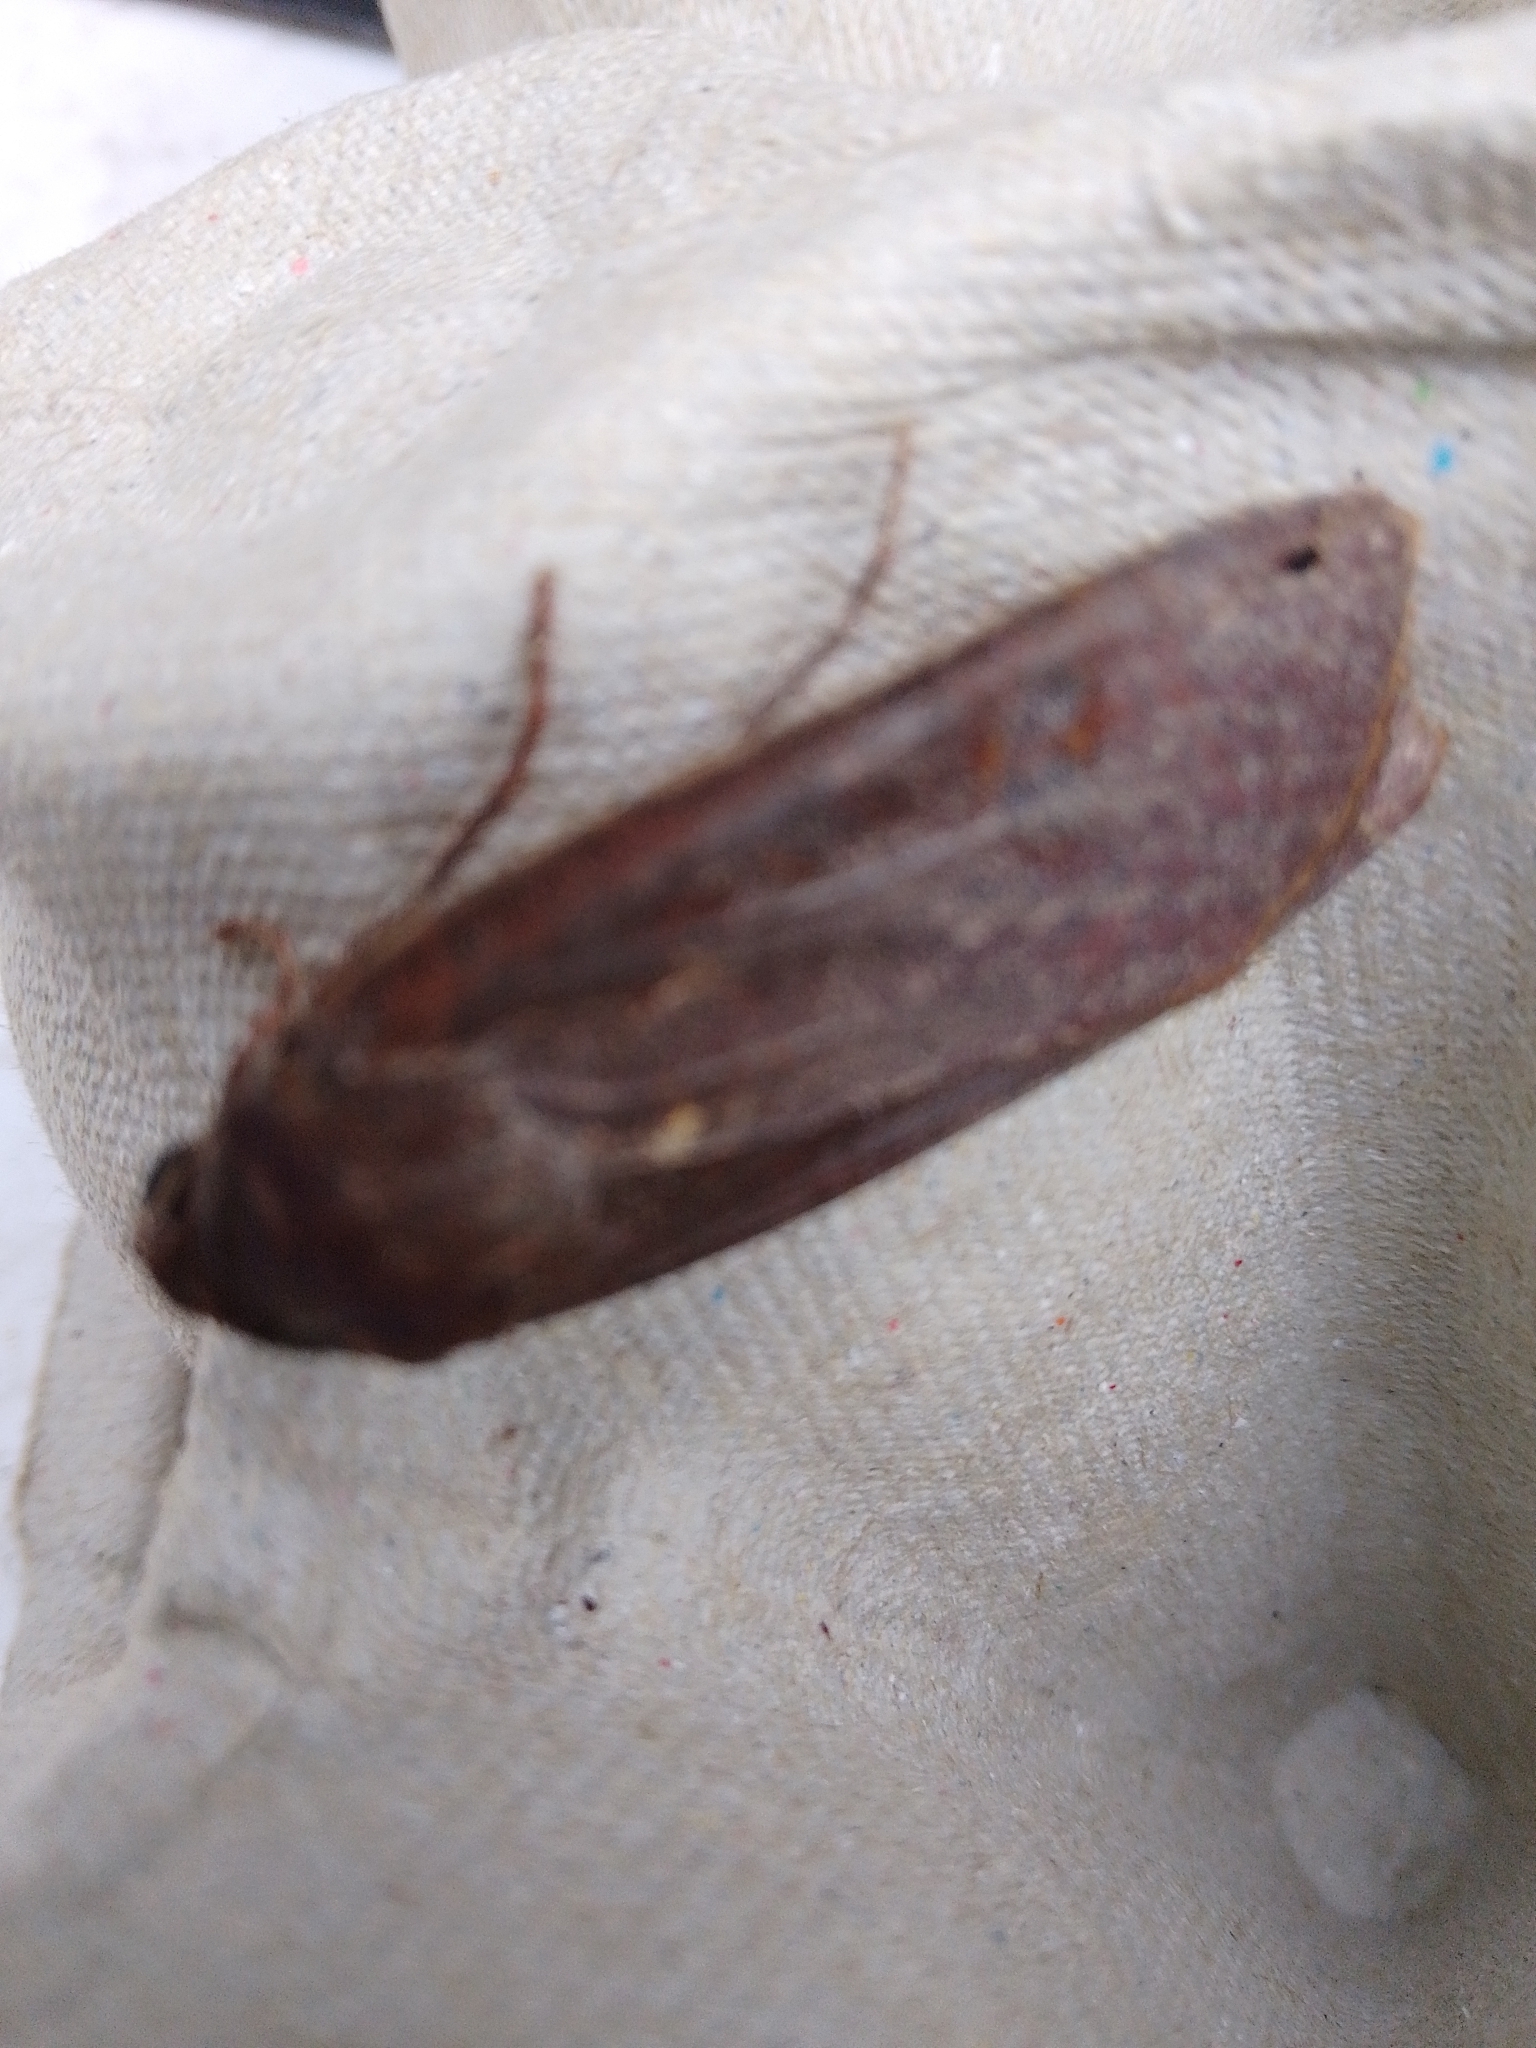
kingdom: Animalia
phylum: Arthropoda
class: Insecta
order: Lepidoptera
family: Noctuidae
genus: Noctua
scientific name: Noctua pronuba
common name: Large yellow underwing
